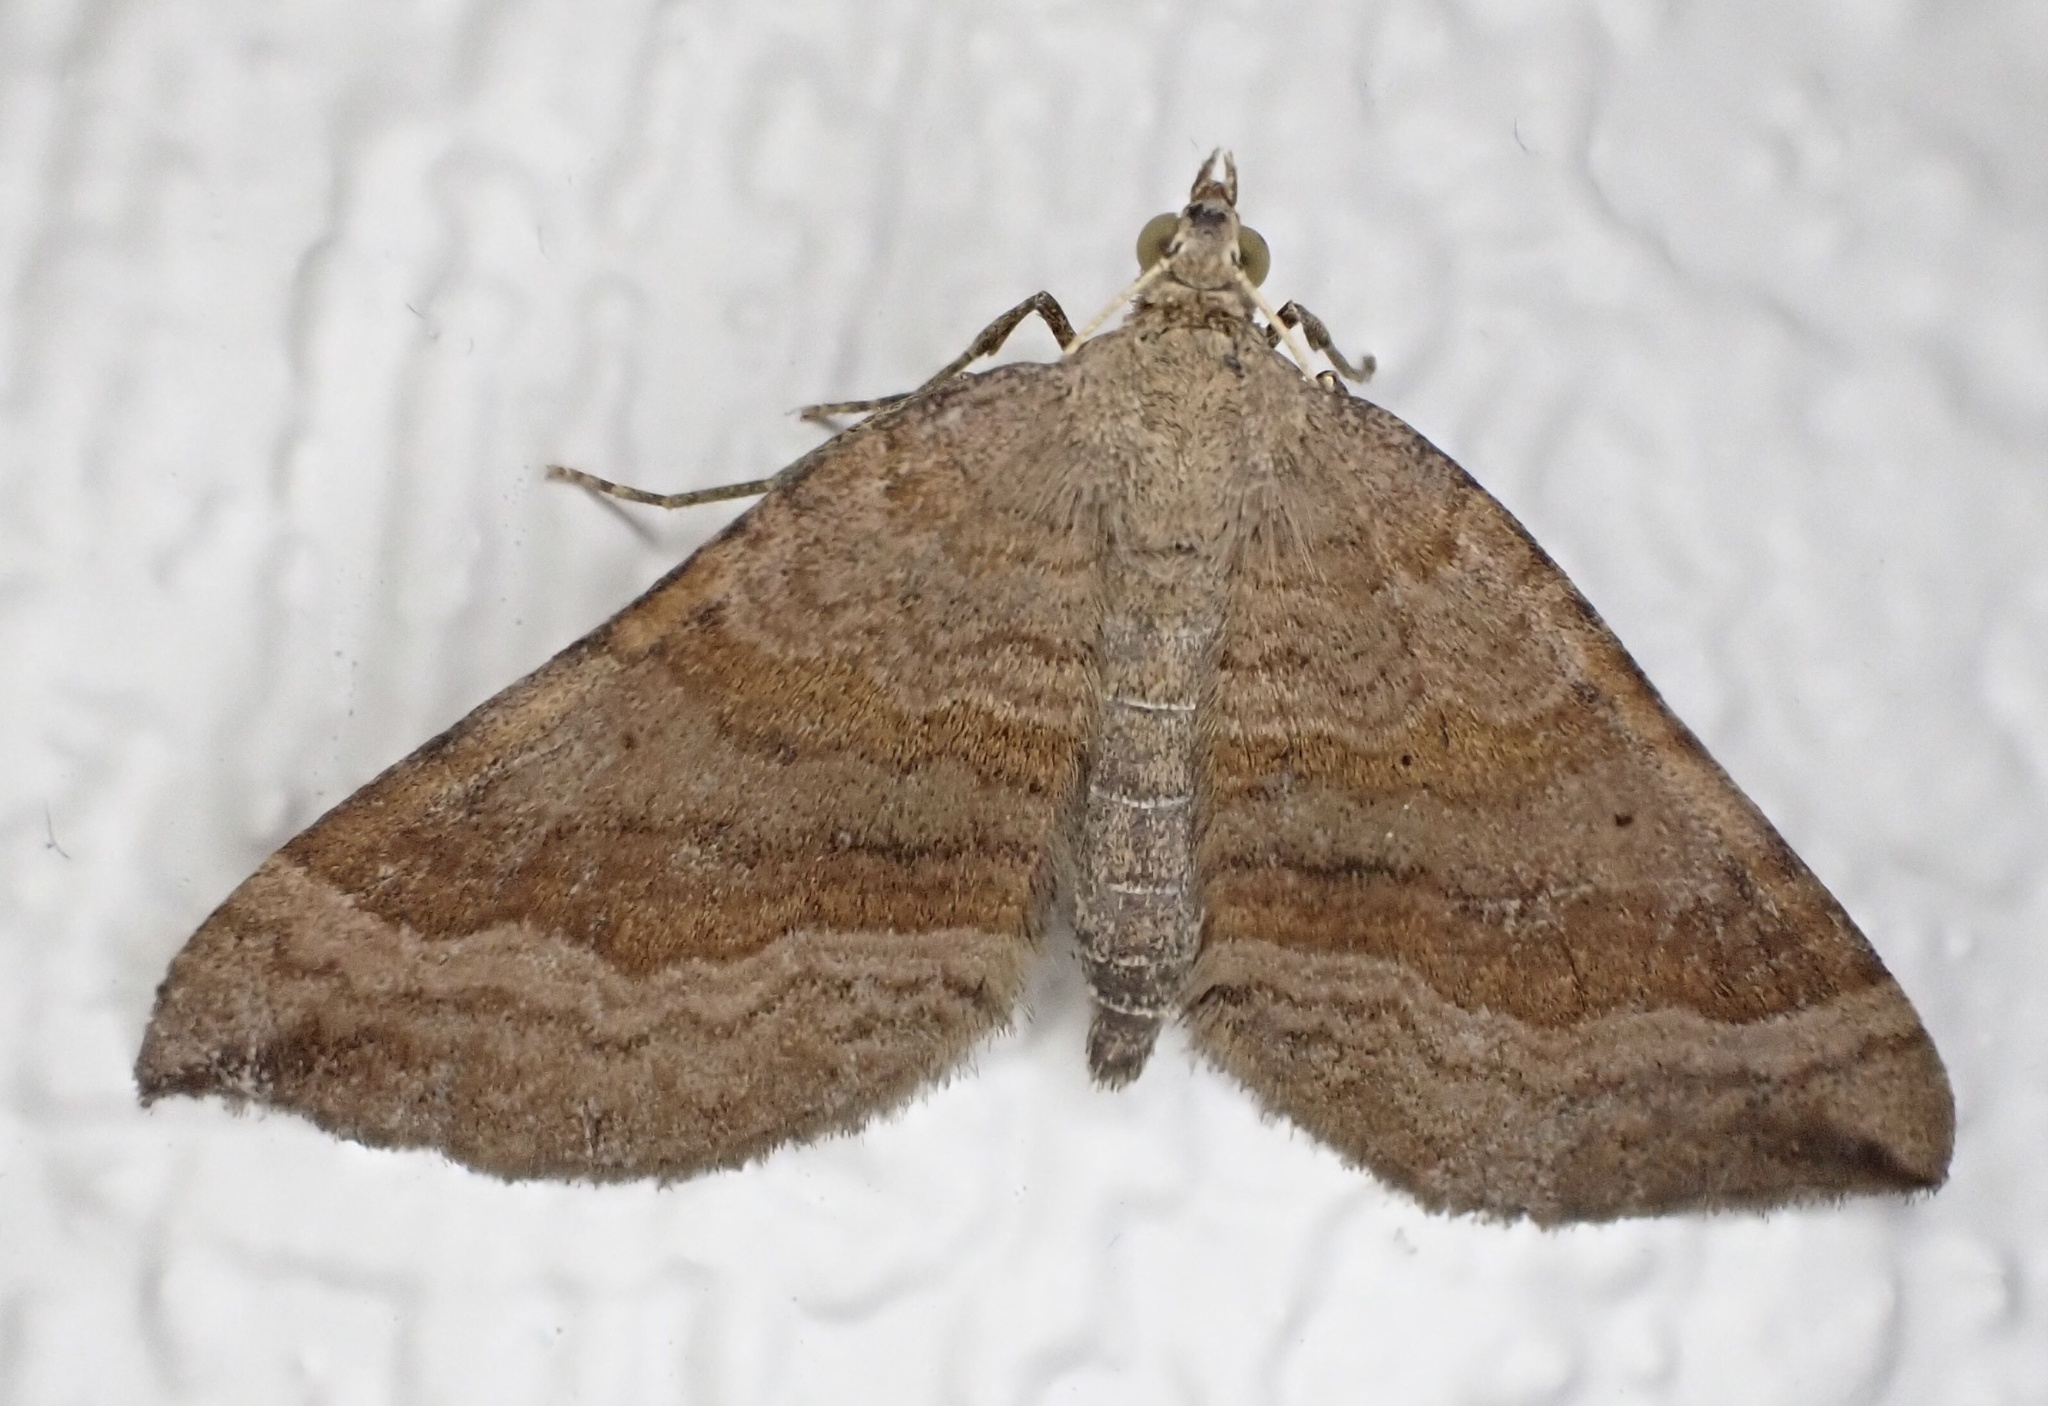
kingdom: Animalia
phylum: Arthropoda
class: Insecta
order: Lepidoptera
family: Geometridae
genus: Scotopteryx
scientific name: Scotopteryx chenopodiata
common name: Shaded broad-bar
